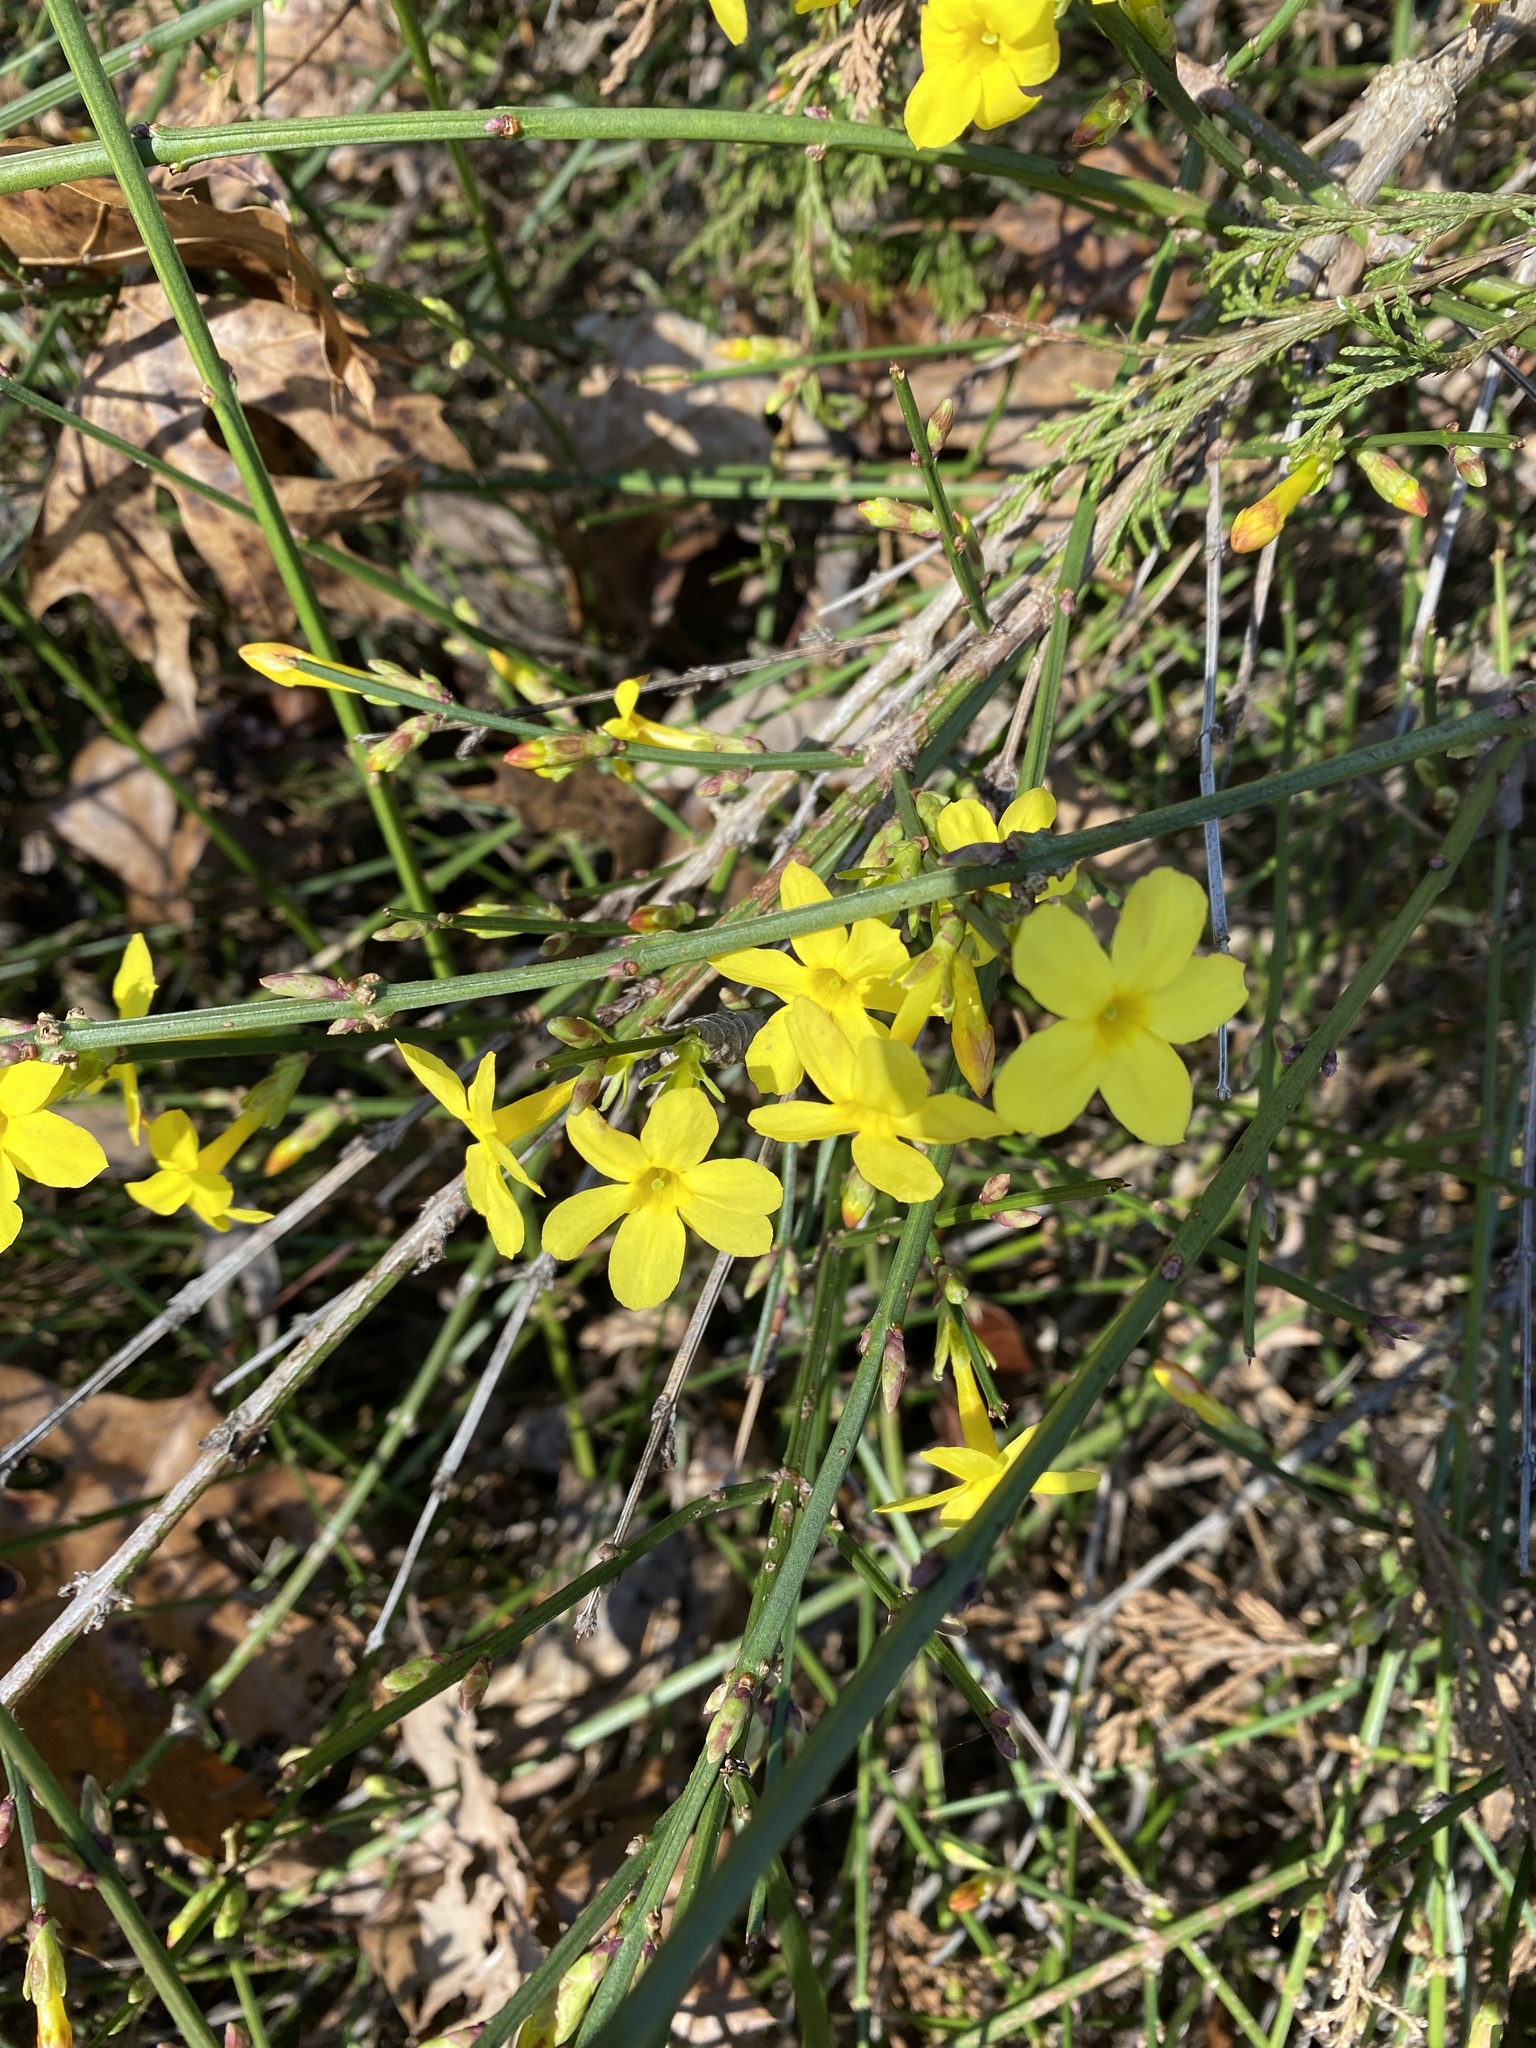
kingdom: Plantae
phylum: Tracheophyta
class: Magnoliopsida
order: Lamiales
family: Oleaceae
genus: Jasminum
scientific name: Jasminum nudiflorum
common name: Winter jasmine
